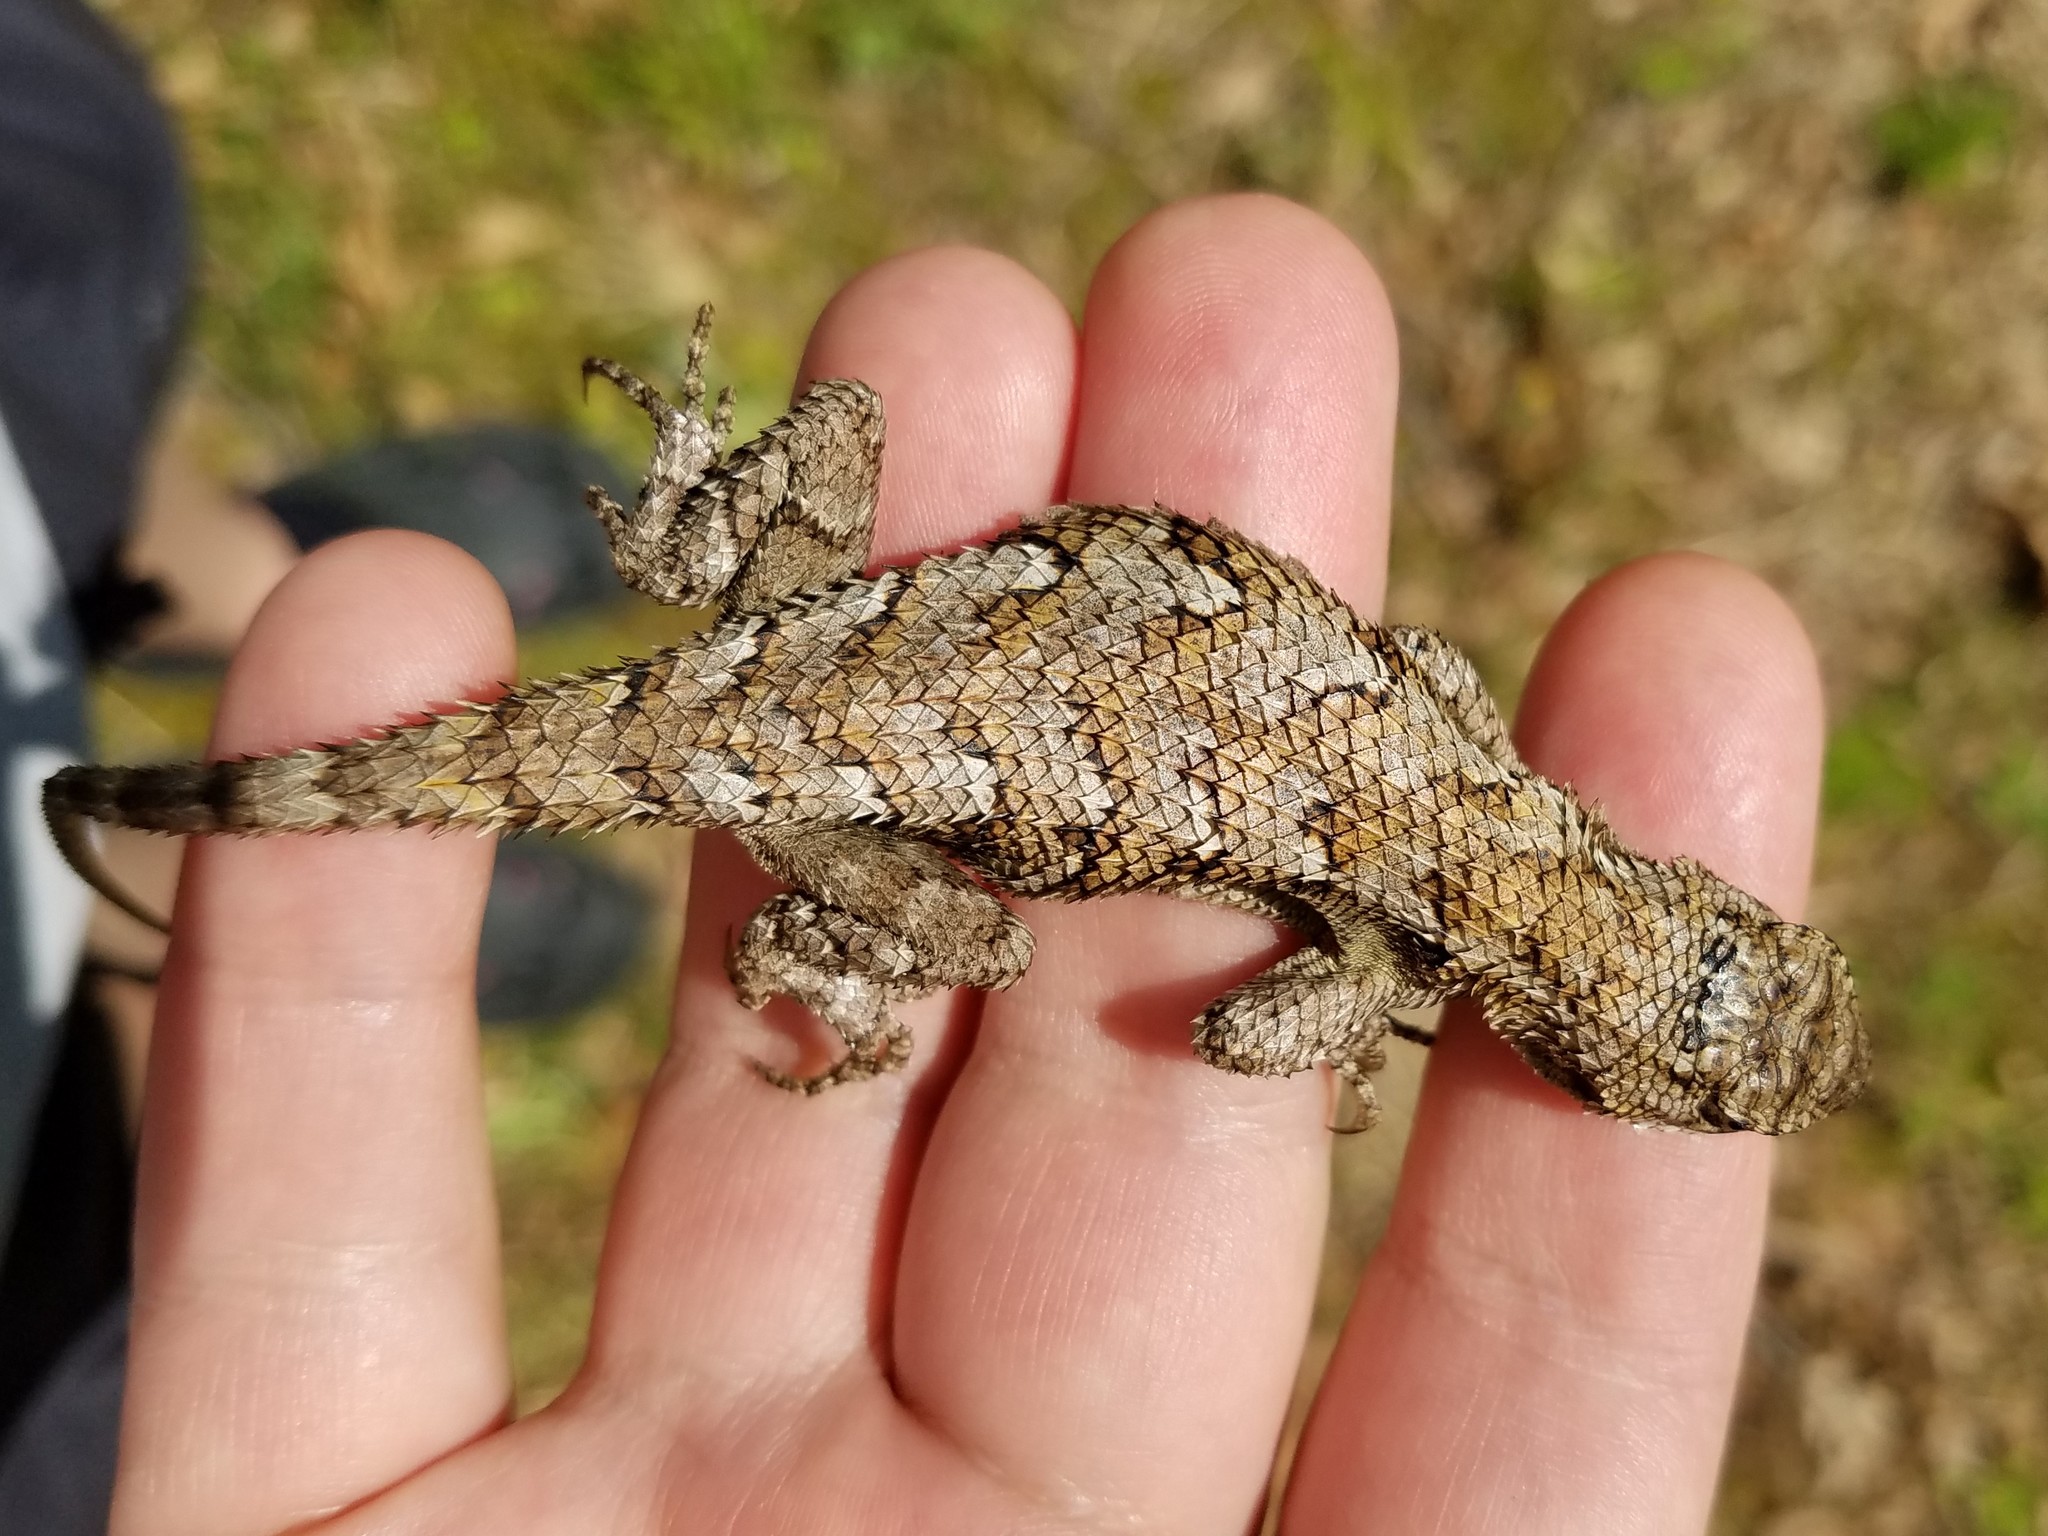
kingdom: Animalia
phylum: Chordata
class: Squamata
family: Phrynosomatidae
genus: Sceloporus
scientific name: Sceloporus undulatus
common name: Eastern fence lizard
